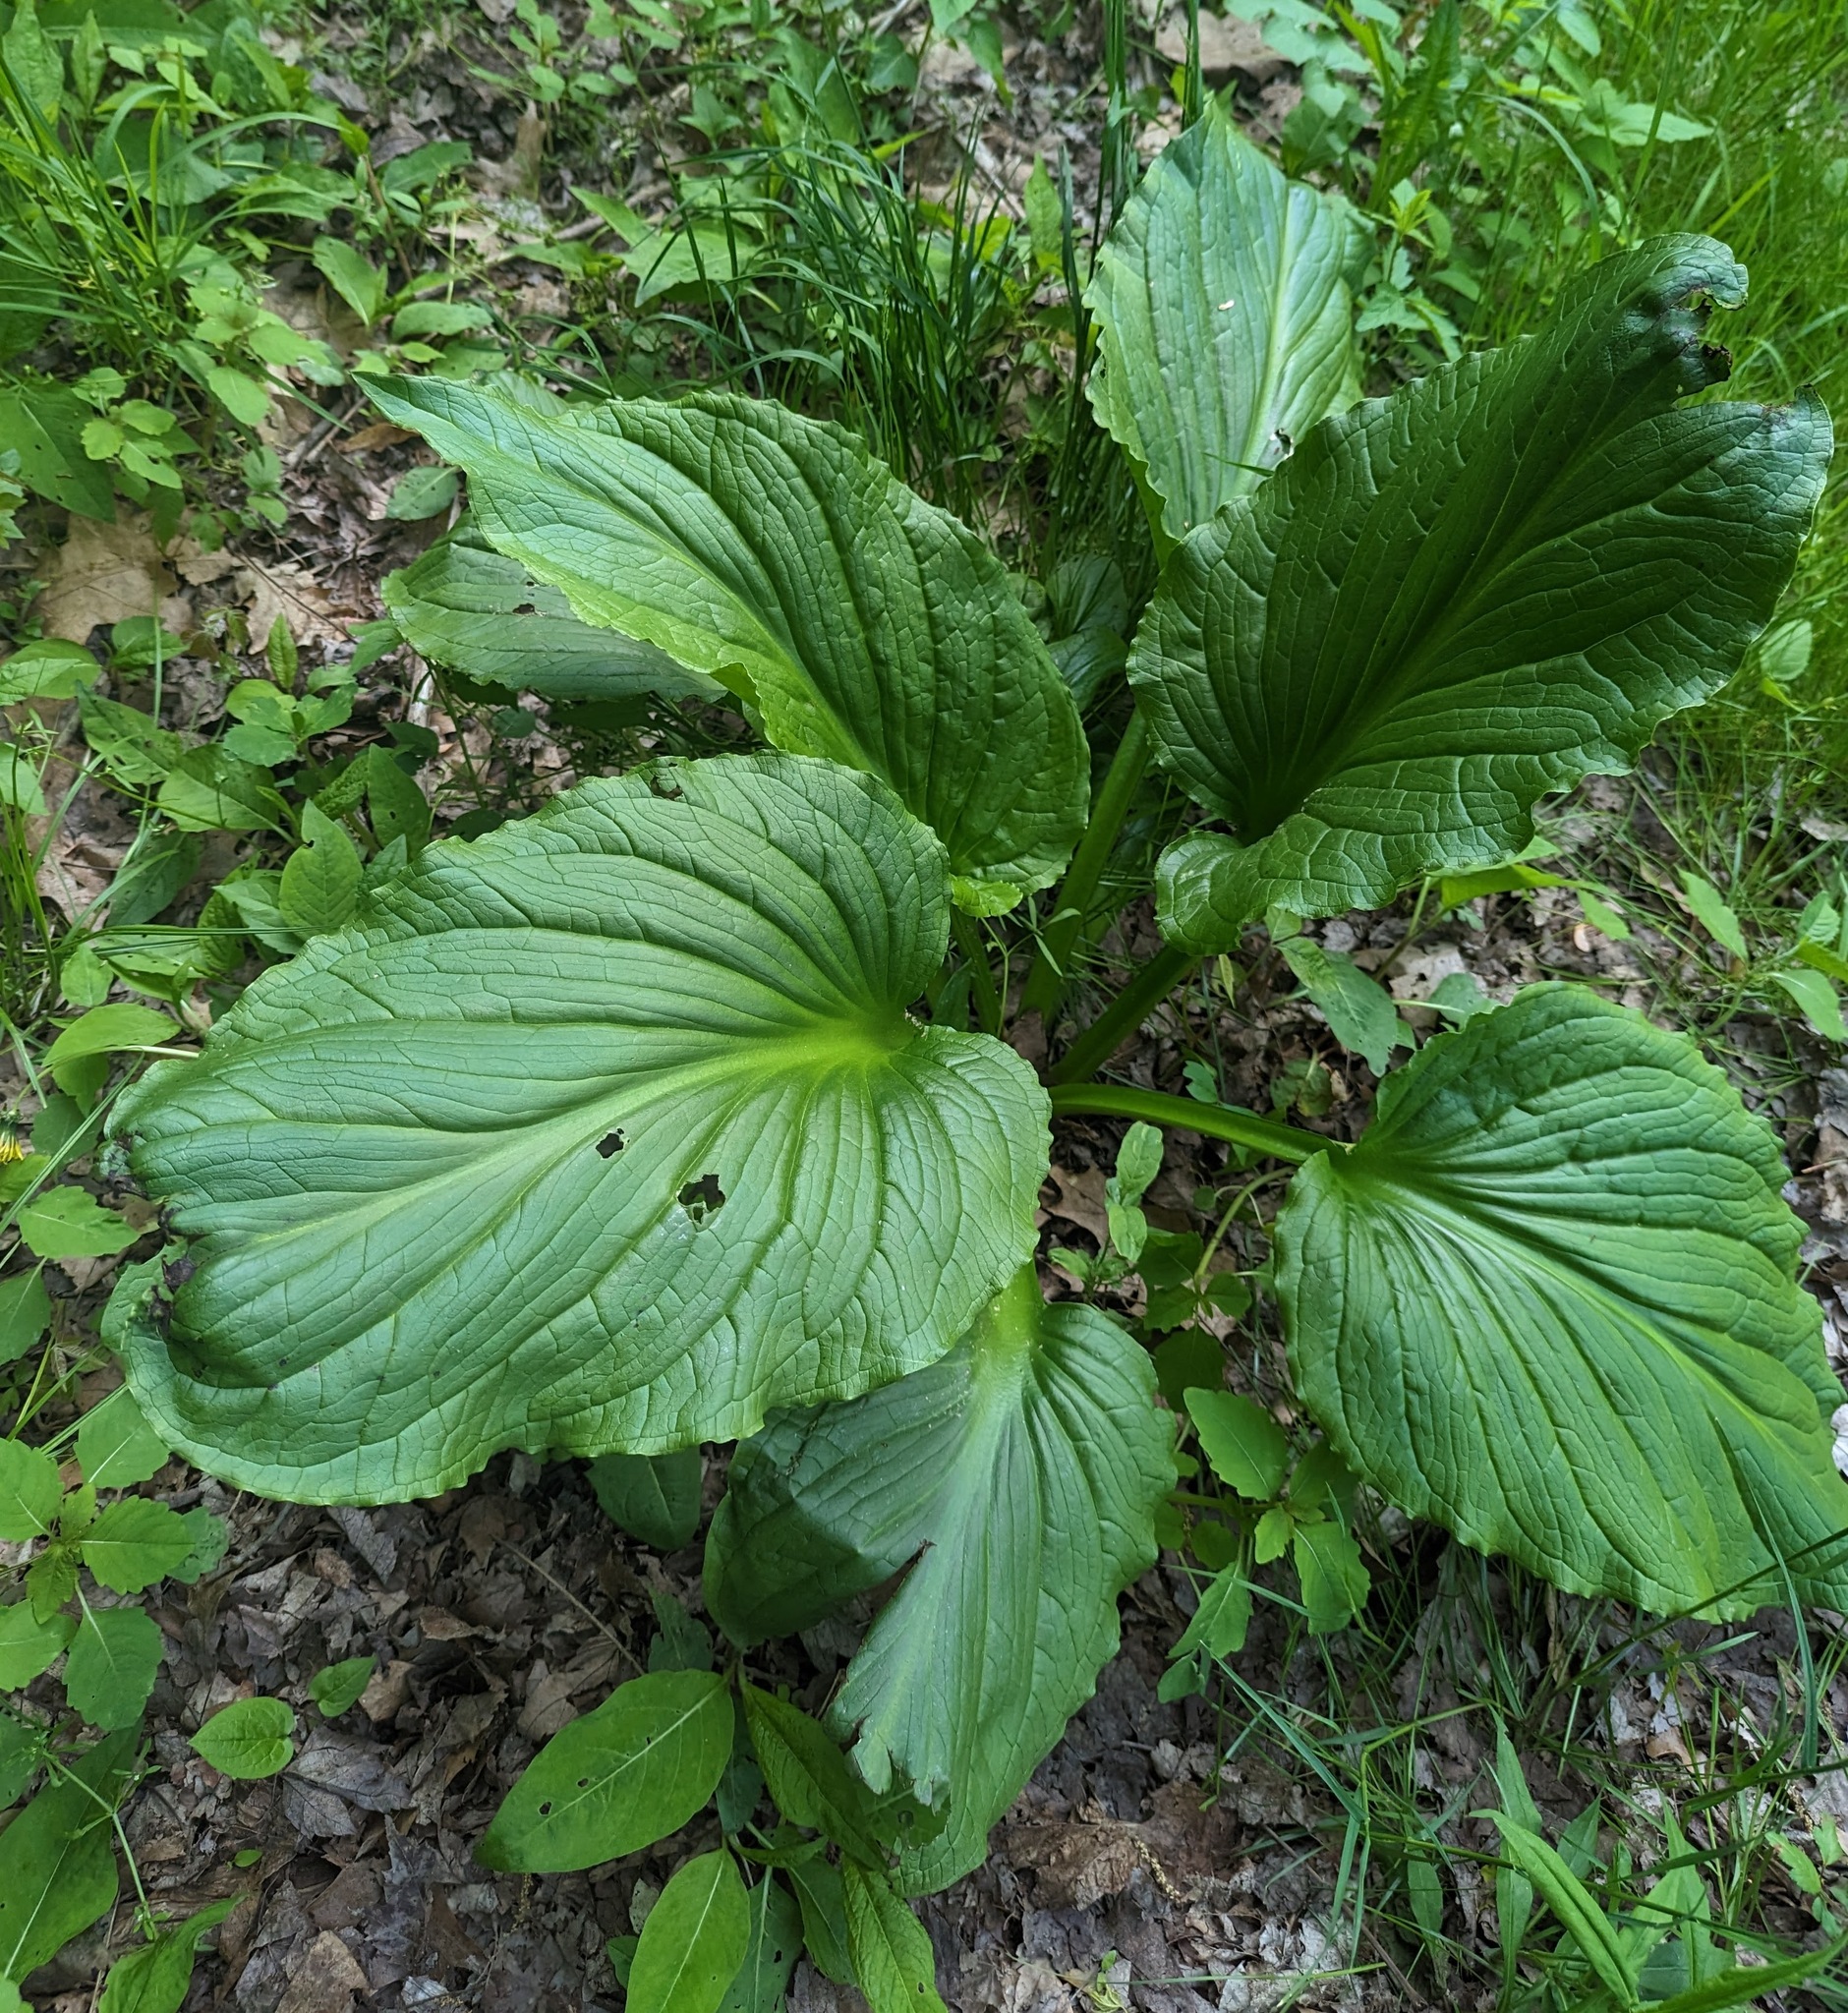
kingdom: Plantae
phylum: Tracheophyta
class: Liliopsida
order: Alismatales
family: Araceae
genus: Symplocarpus
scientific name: Symplocarpus foetidus
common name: Eastern skunk cabbage
